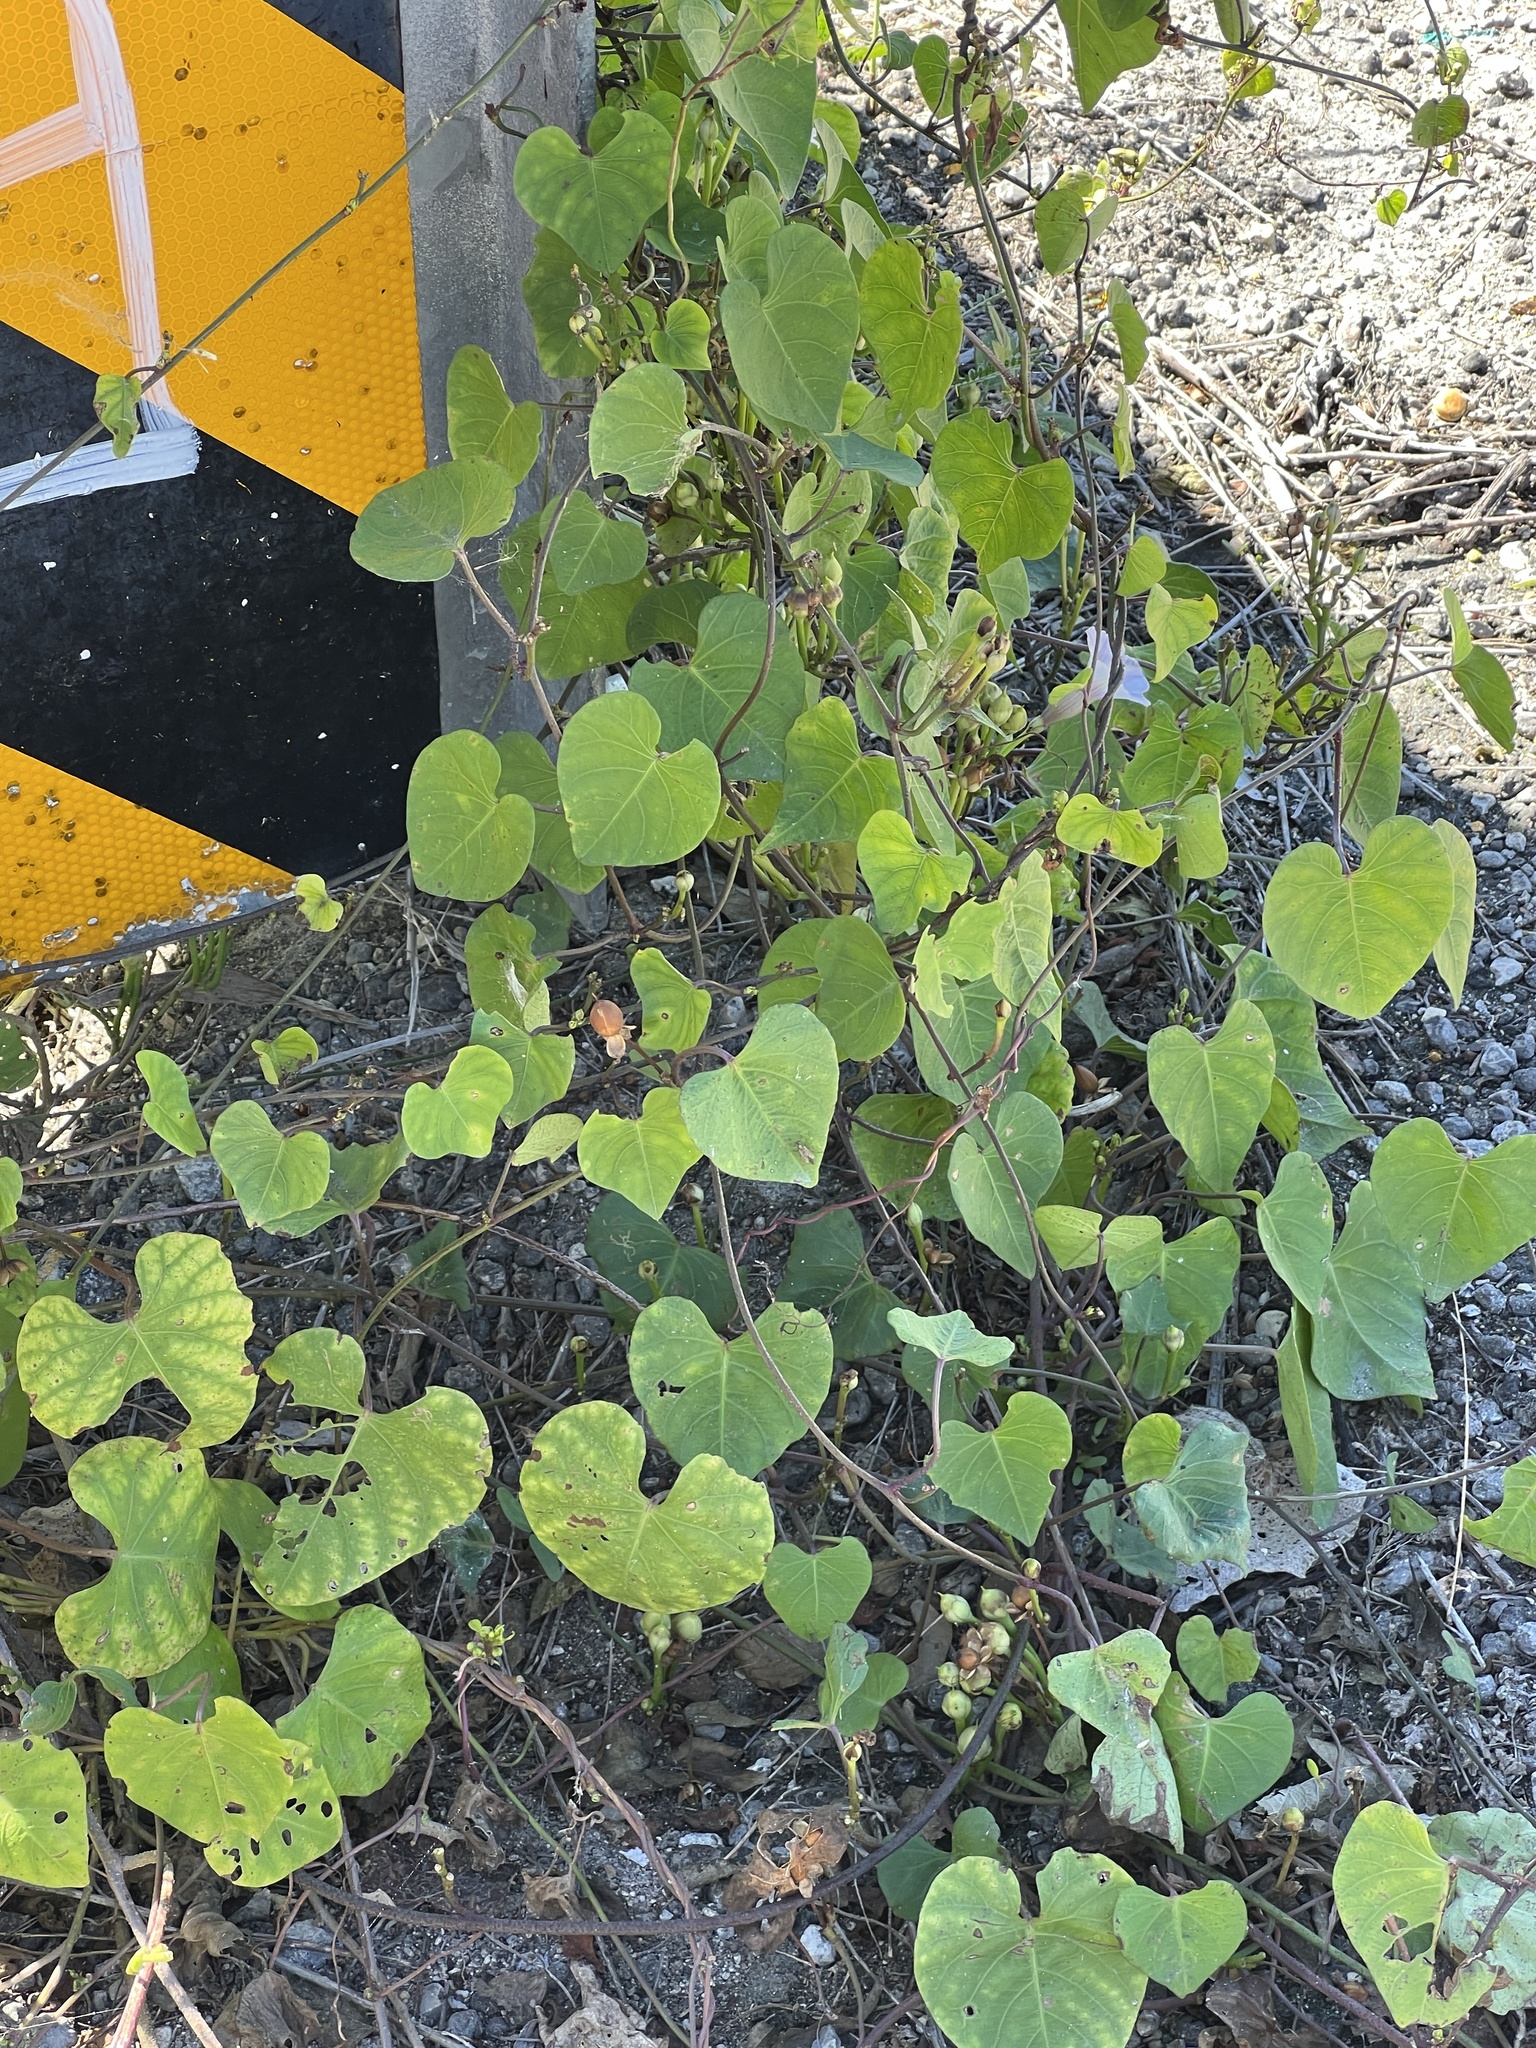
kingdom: Plantae
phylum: Tracheophyta
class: Magnoliopsida
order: Solanales
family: Convolvulaceae
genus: Ipomoea
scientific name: Ipomoea amnicola
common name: Redcenter morning-glory
